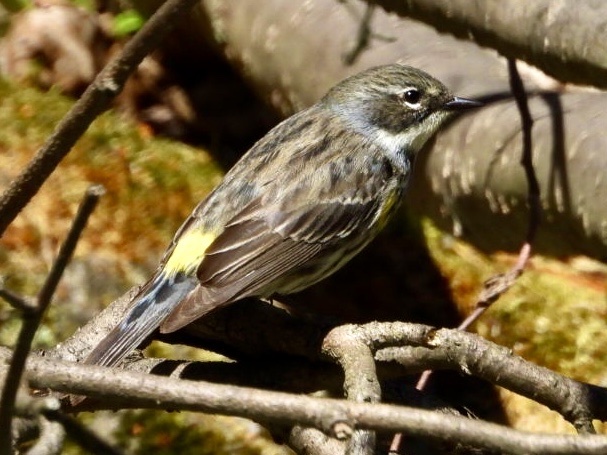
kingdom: Animalia
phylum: Chordata
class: Aves
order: Passeriformes
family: Parulidae
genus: Setophaga
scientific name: Setophaga coronata
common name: Myrtle warbler
